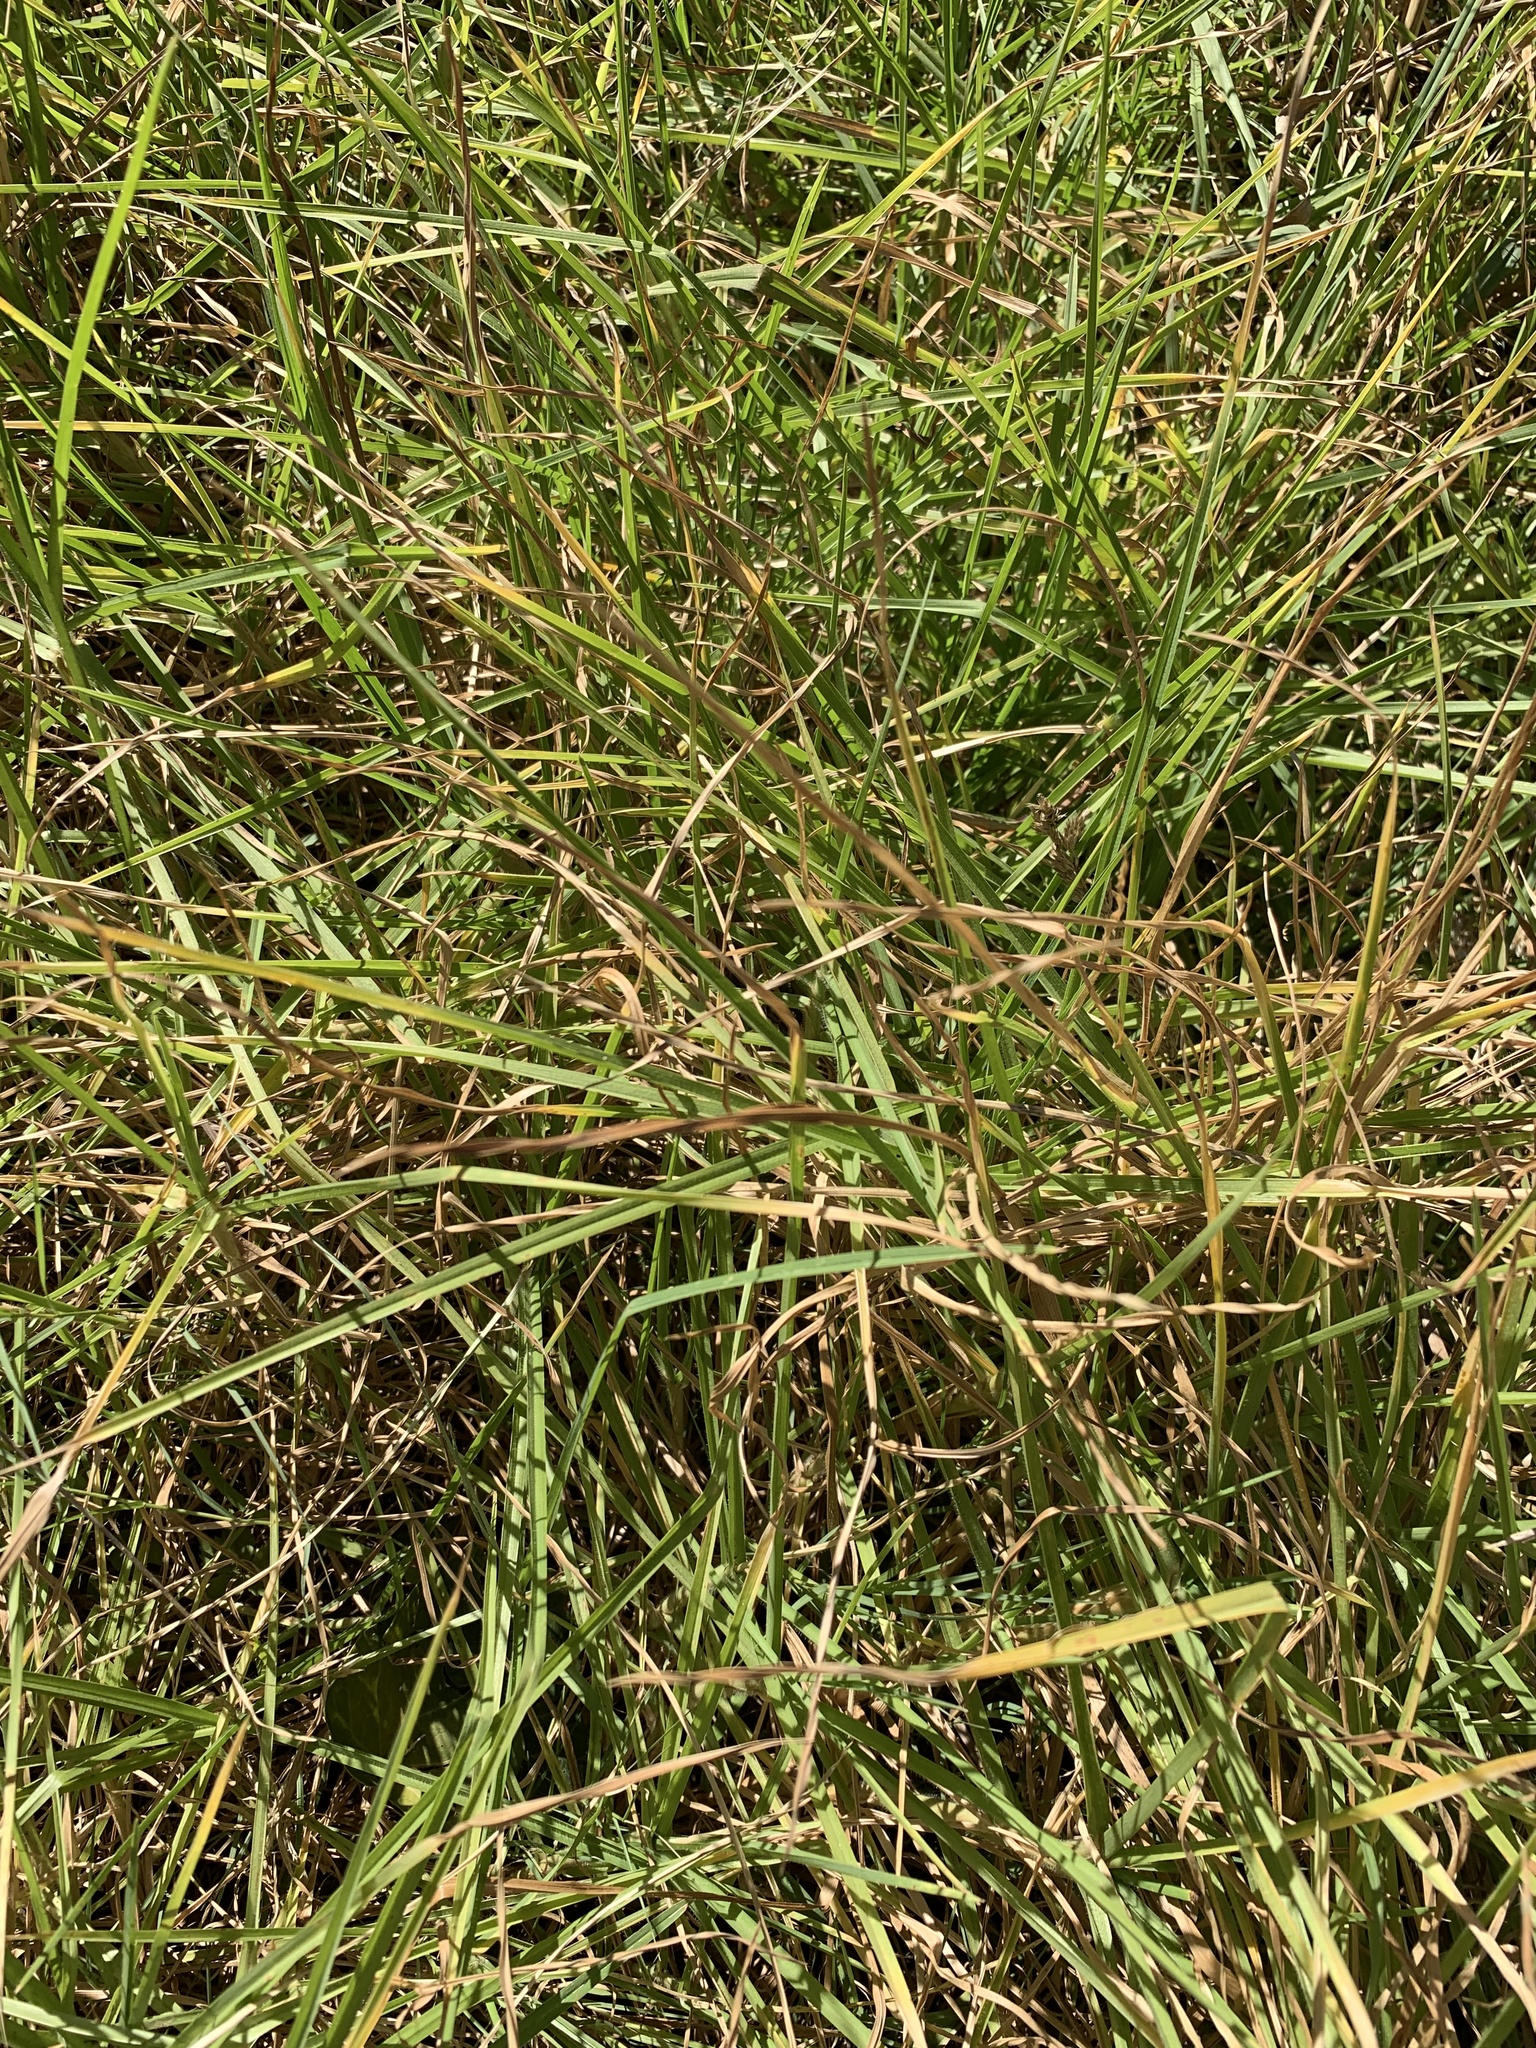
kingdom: Plantae
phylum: Tracheophyta
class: Liliopsida
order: Poales
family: Poaceae
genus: Cenchrus
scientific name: Cenchrus clandestinus
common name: Kikuyugrass
